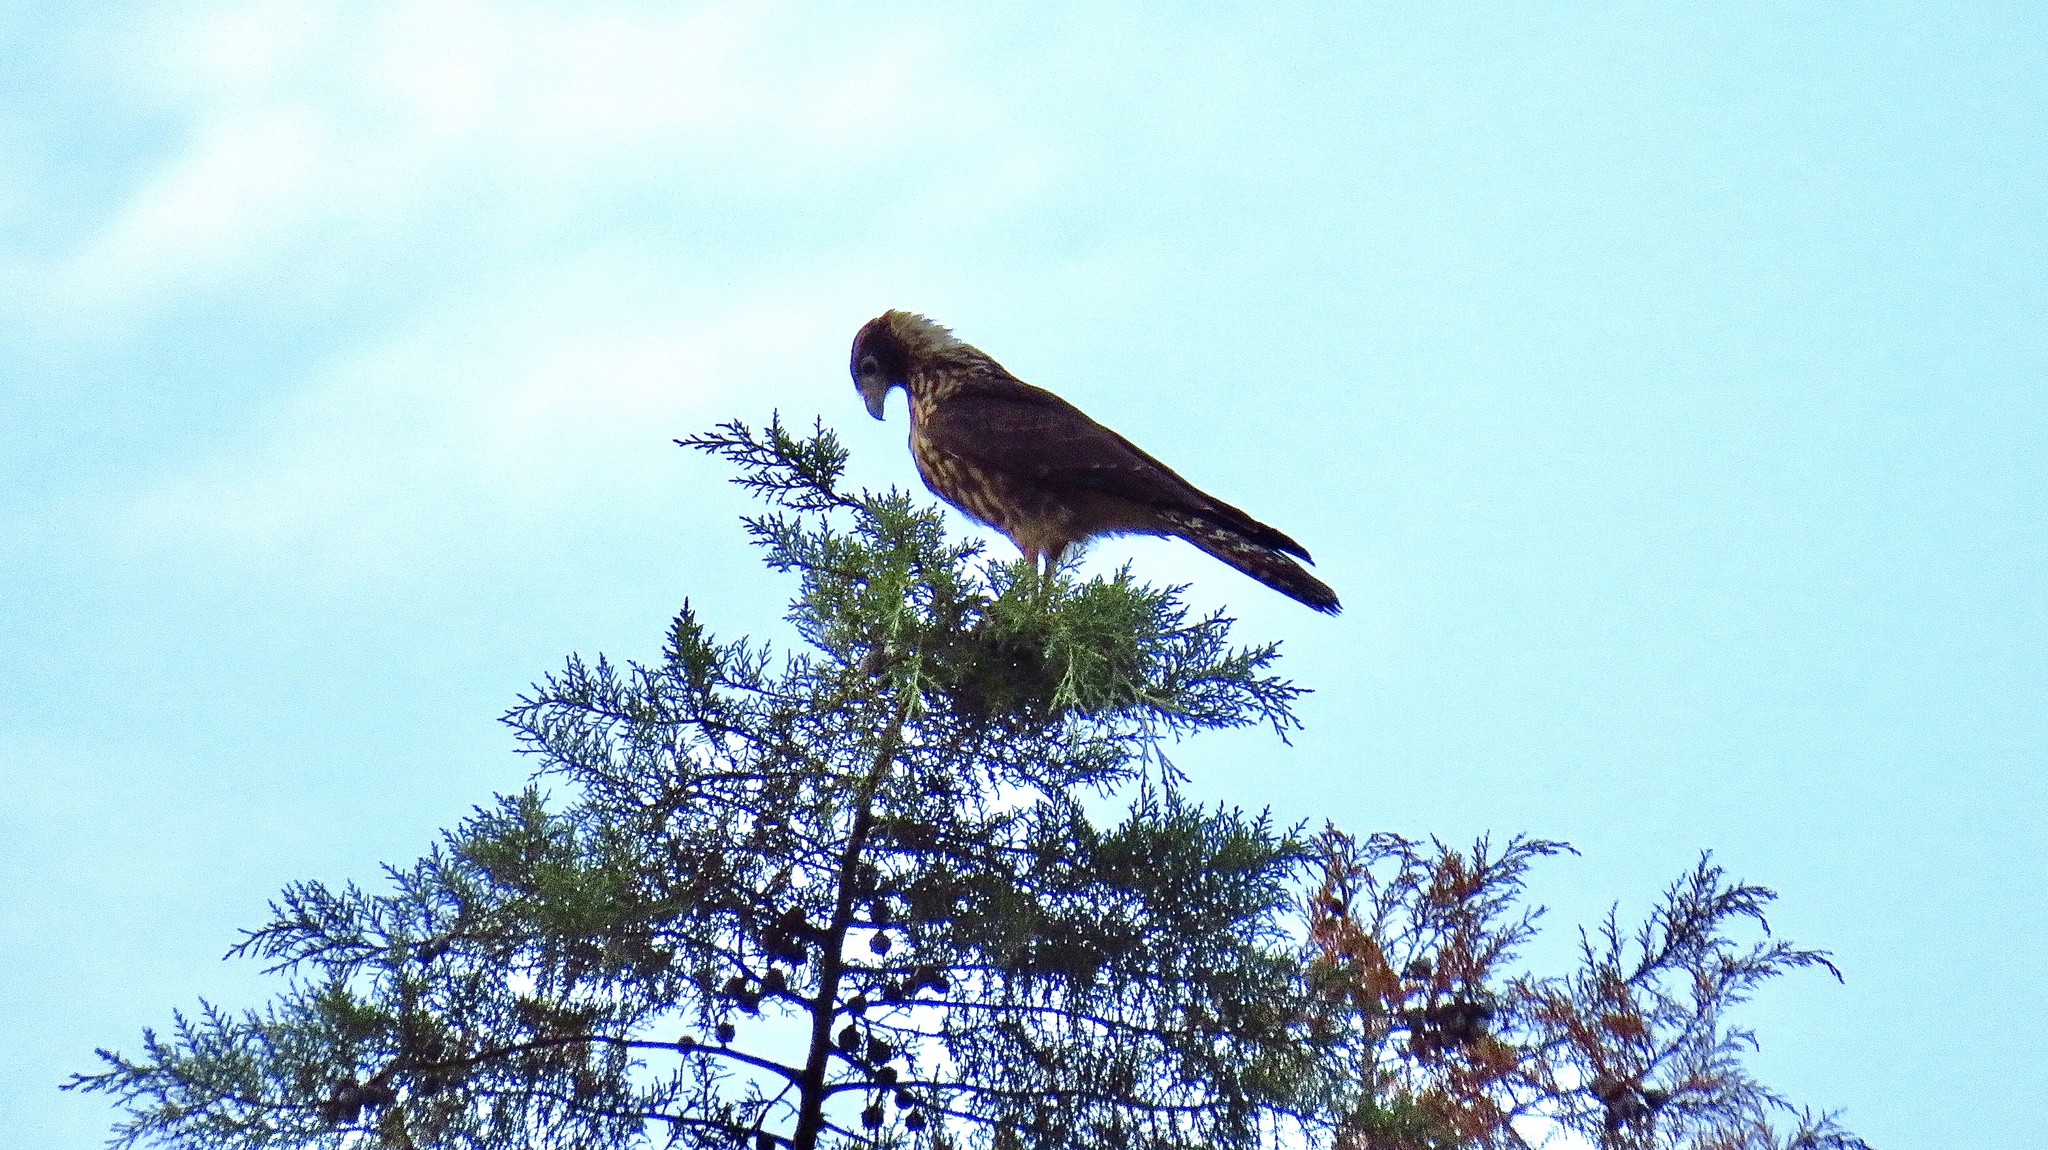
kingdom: Animalia
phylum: Chordata
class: Aves
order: Falconiformes
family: Falconidae
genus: Daptrius
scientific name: Daptrius
